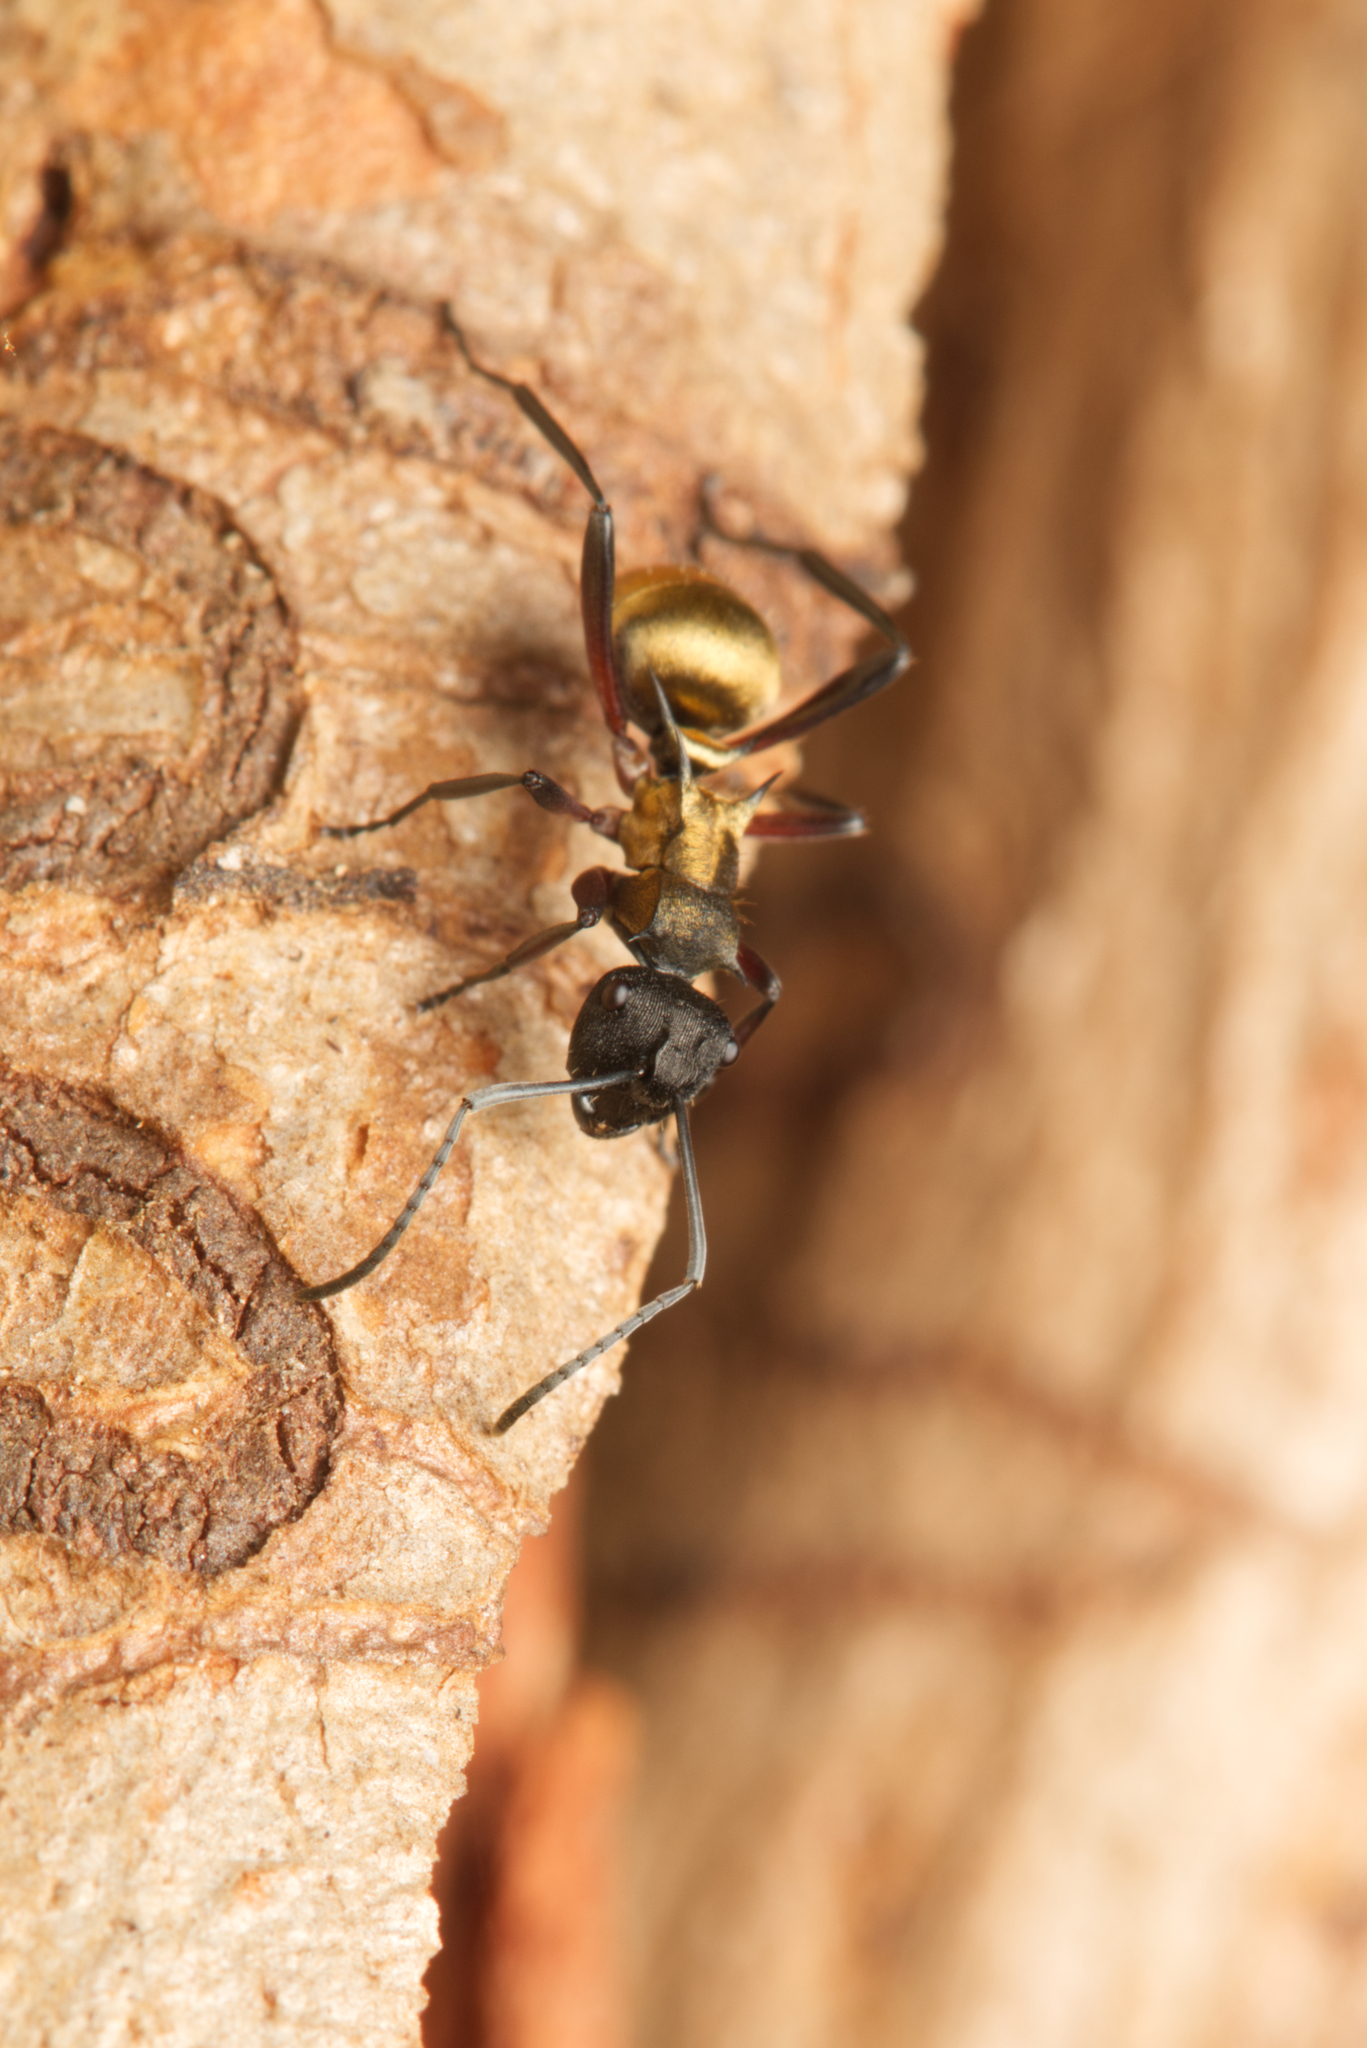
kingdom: Animalia
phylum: Arthropoda
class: Insecta
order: Hymenoptera
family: Formicidae
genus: Polyrhachis
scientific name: Polyrhachis rufifemur
